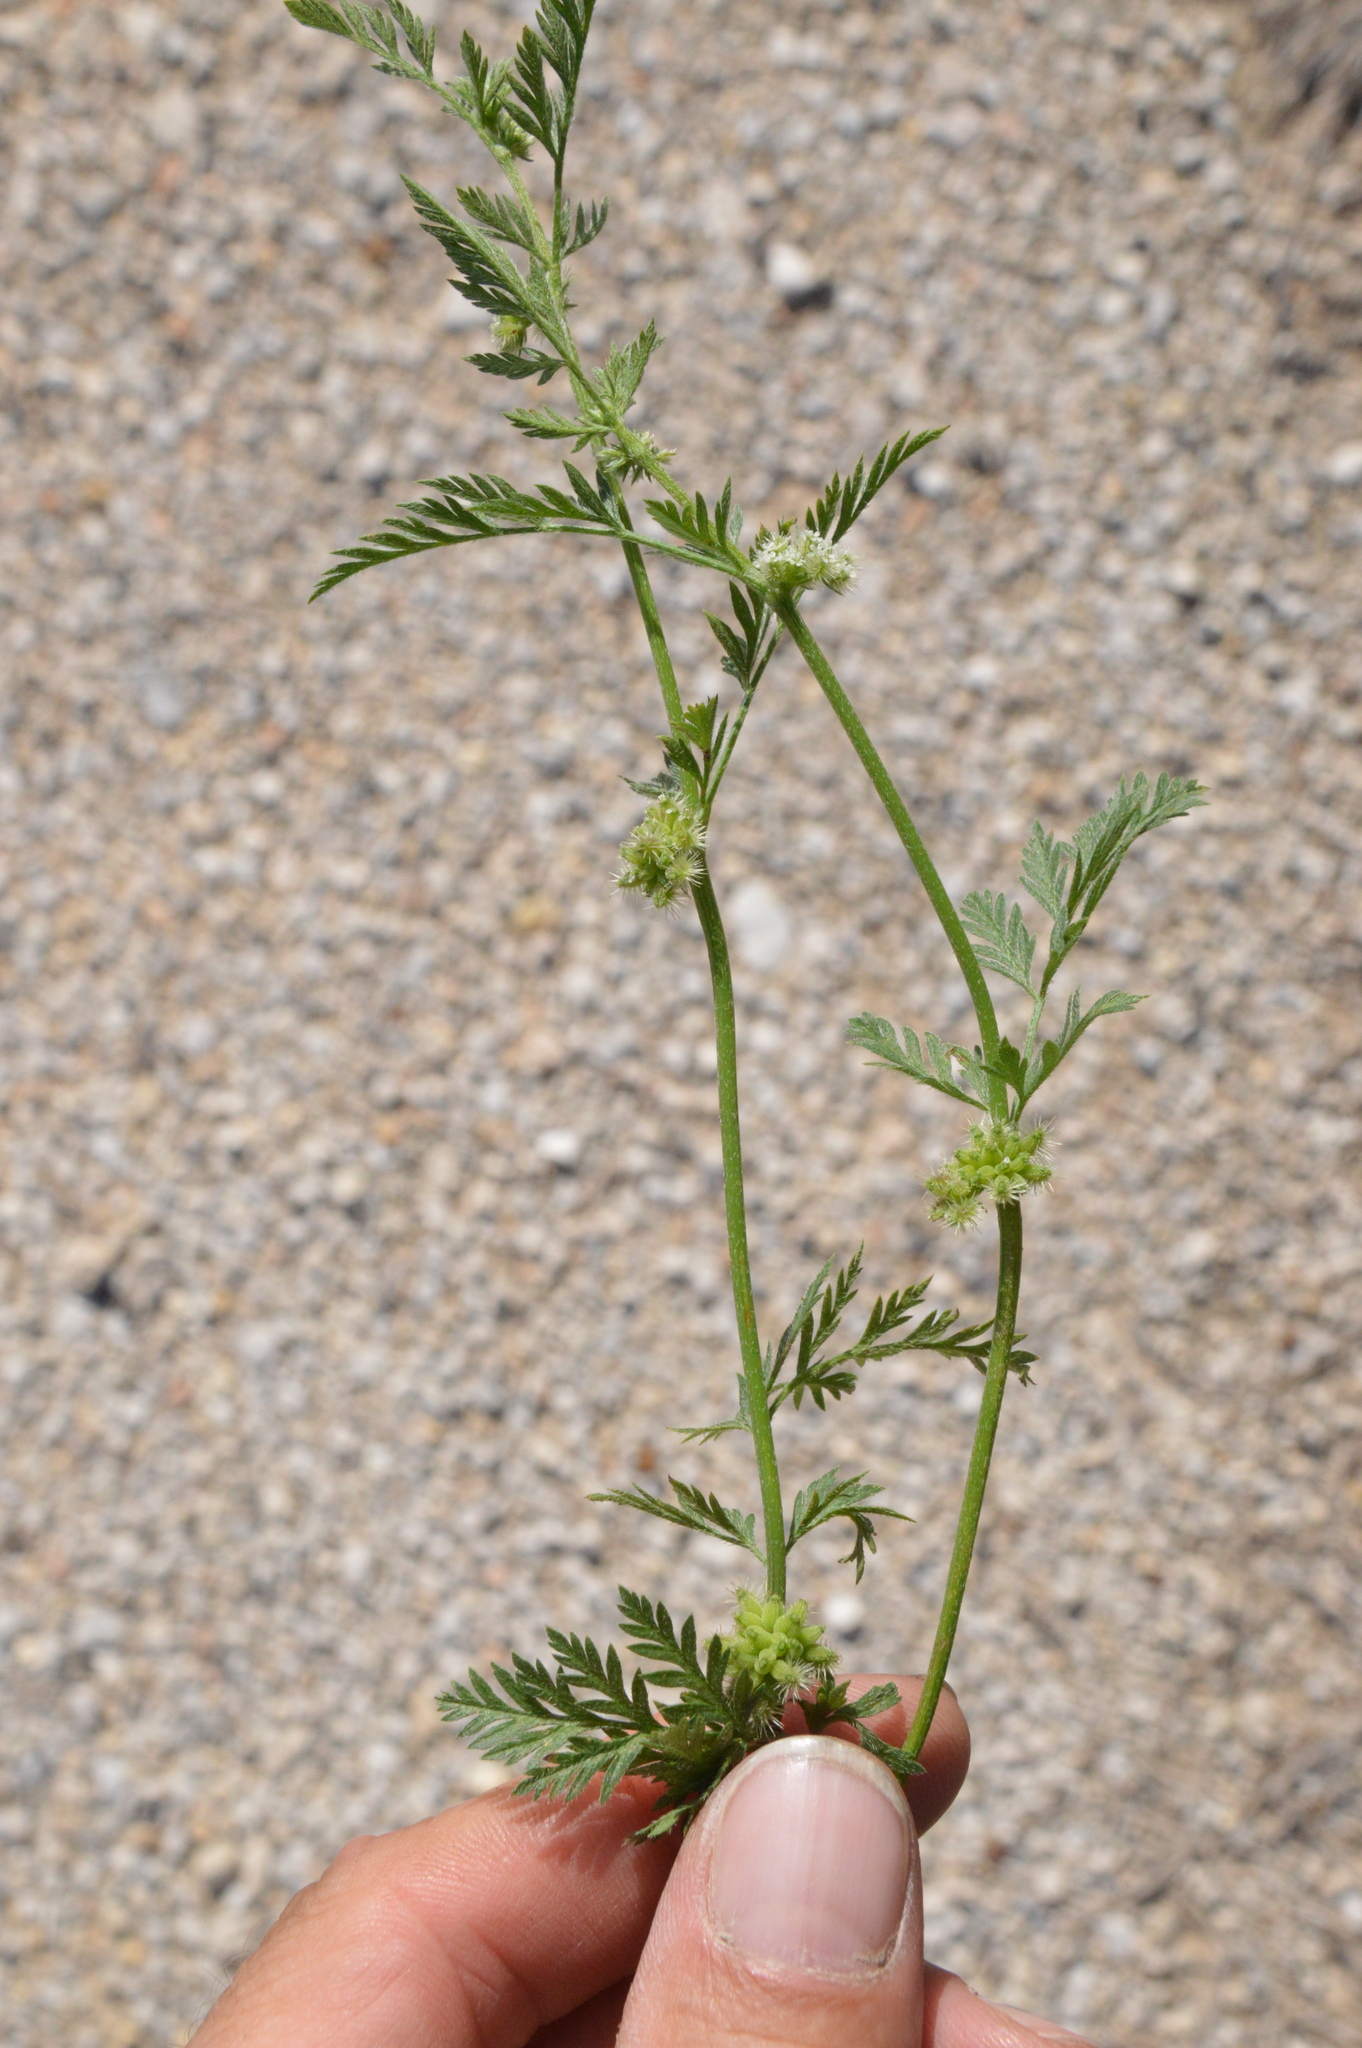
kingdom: Plantae
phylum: Tracheophyta
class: Magnoliopsida
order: Apiales
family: Apiaceae
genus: Torilis
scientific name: Torilis nodosa
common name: Knotted hedge-parsley
